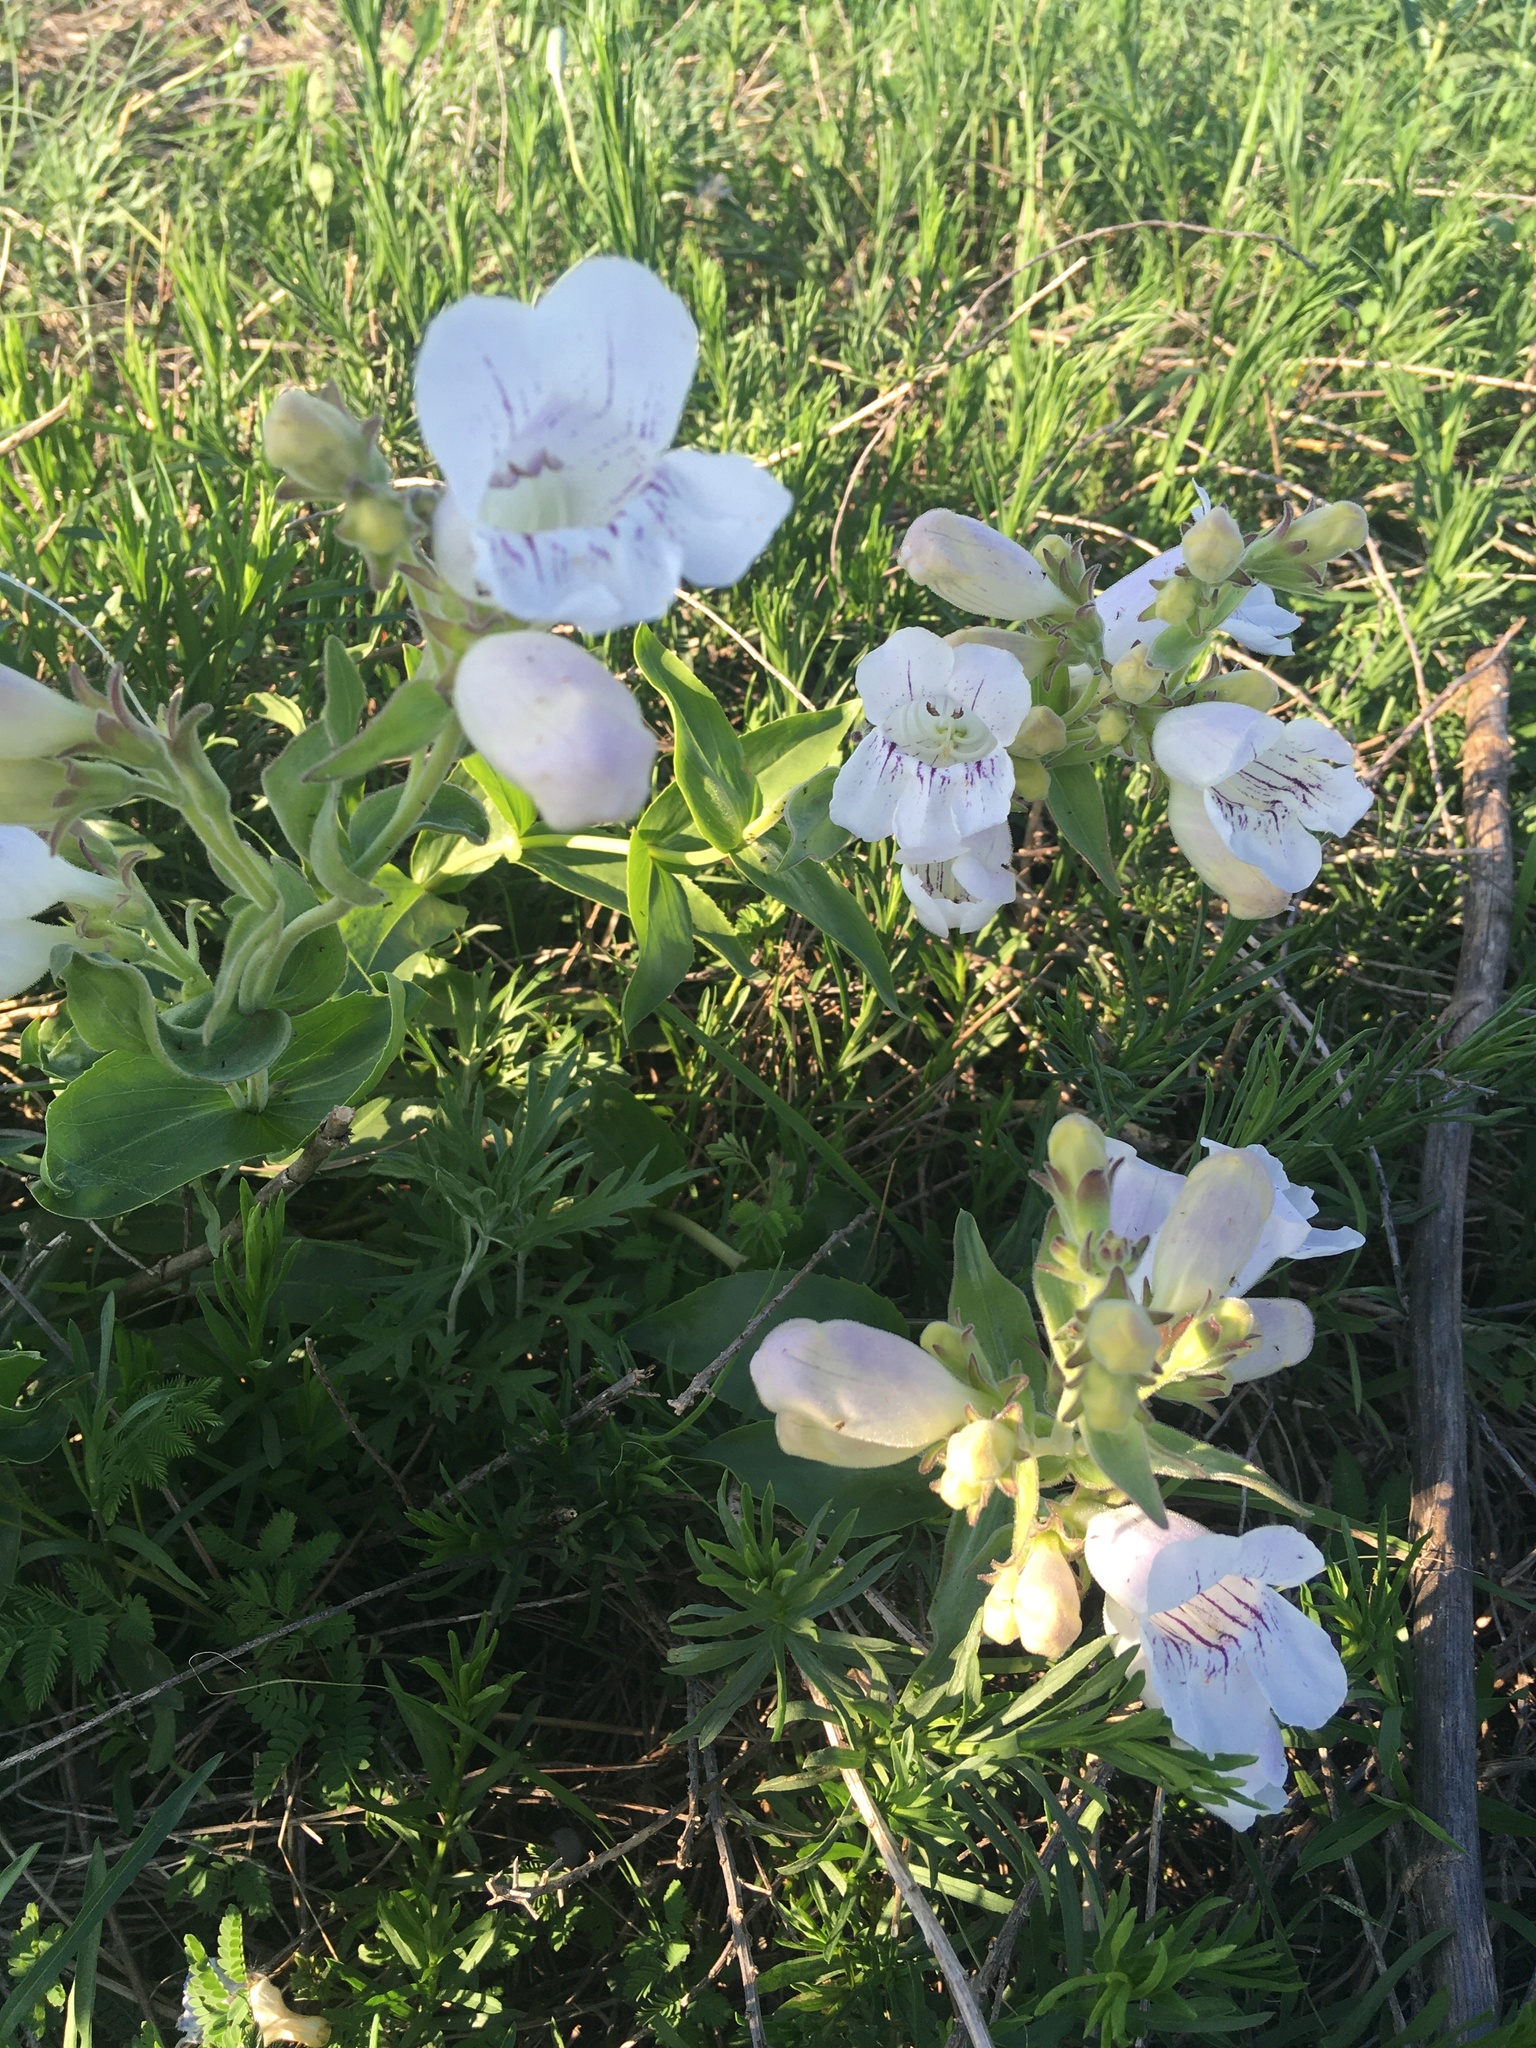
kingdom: Plantae
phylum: Tracheophyta
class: Magnoliopsida
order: Lamiales
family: Plantaginaceae
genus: Penstemon
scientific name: Penstemon cobaea
